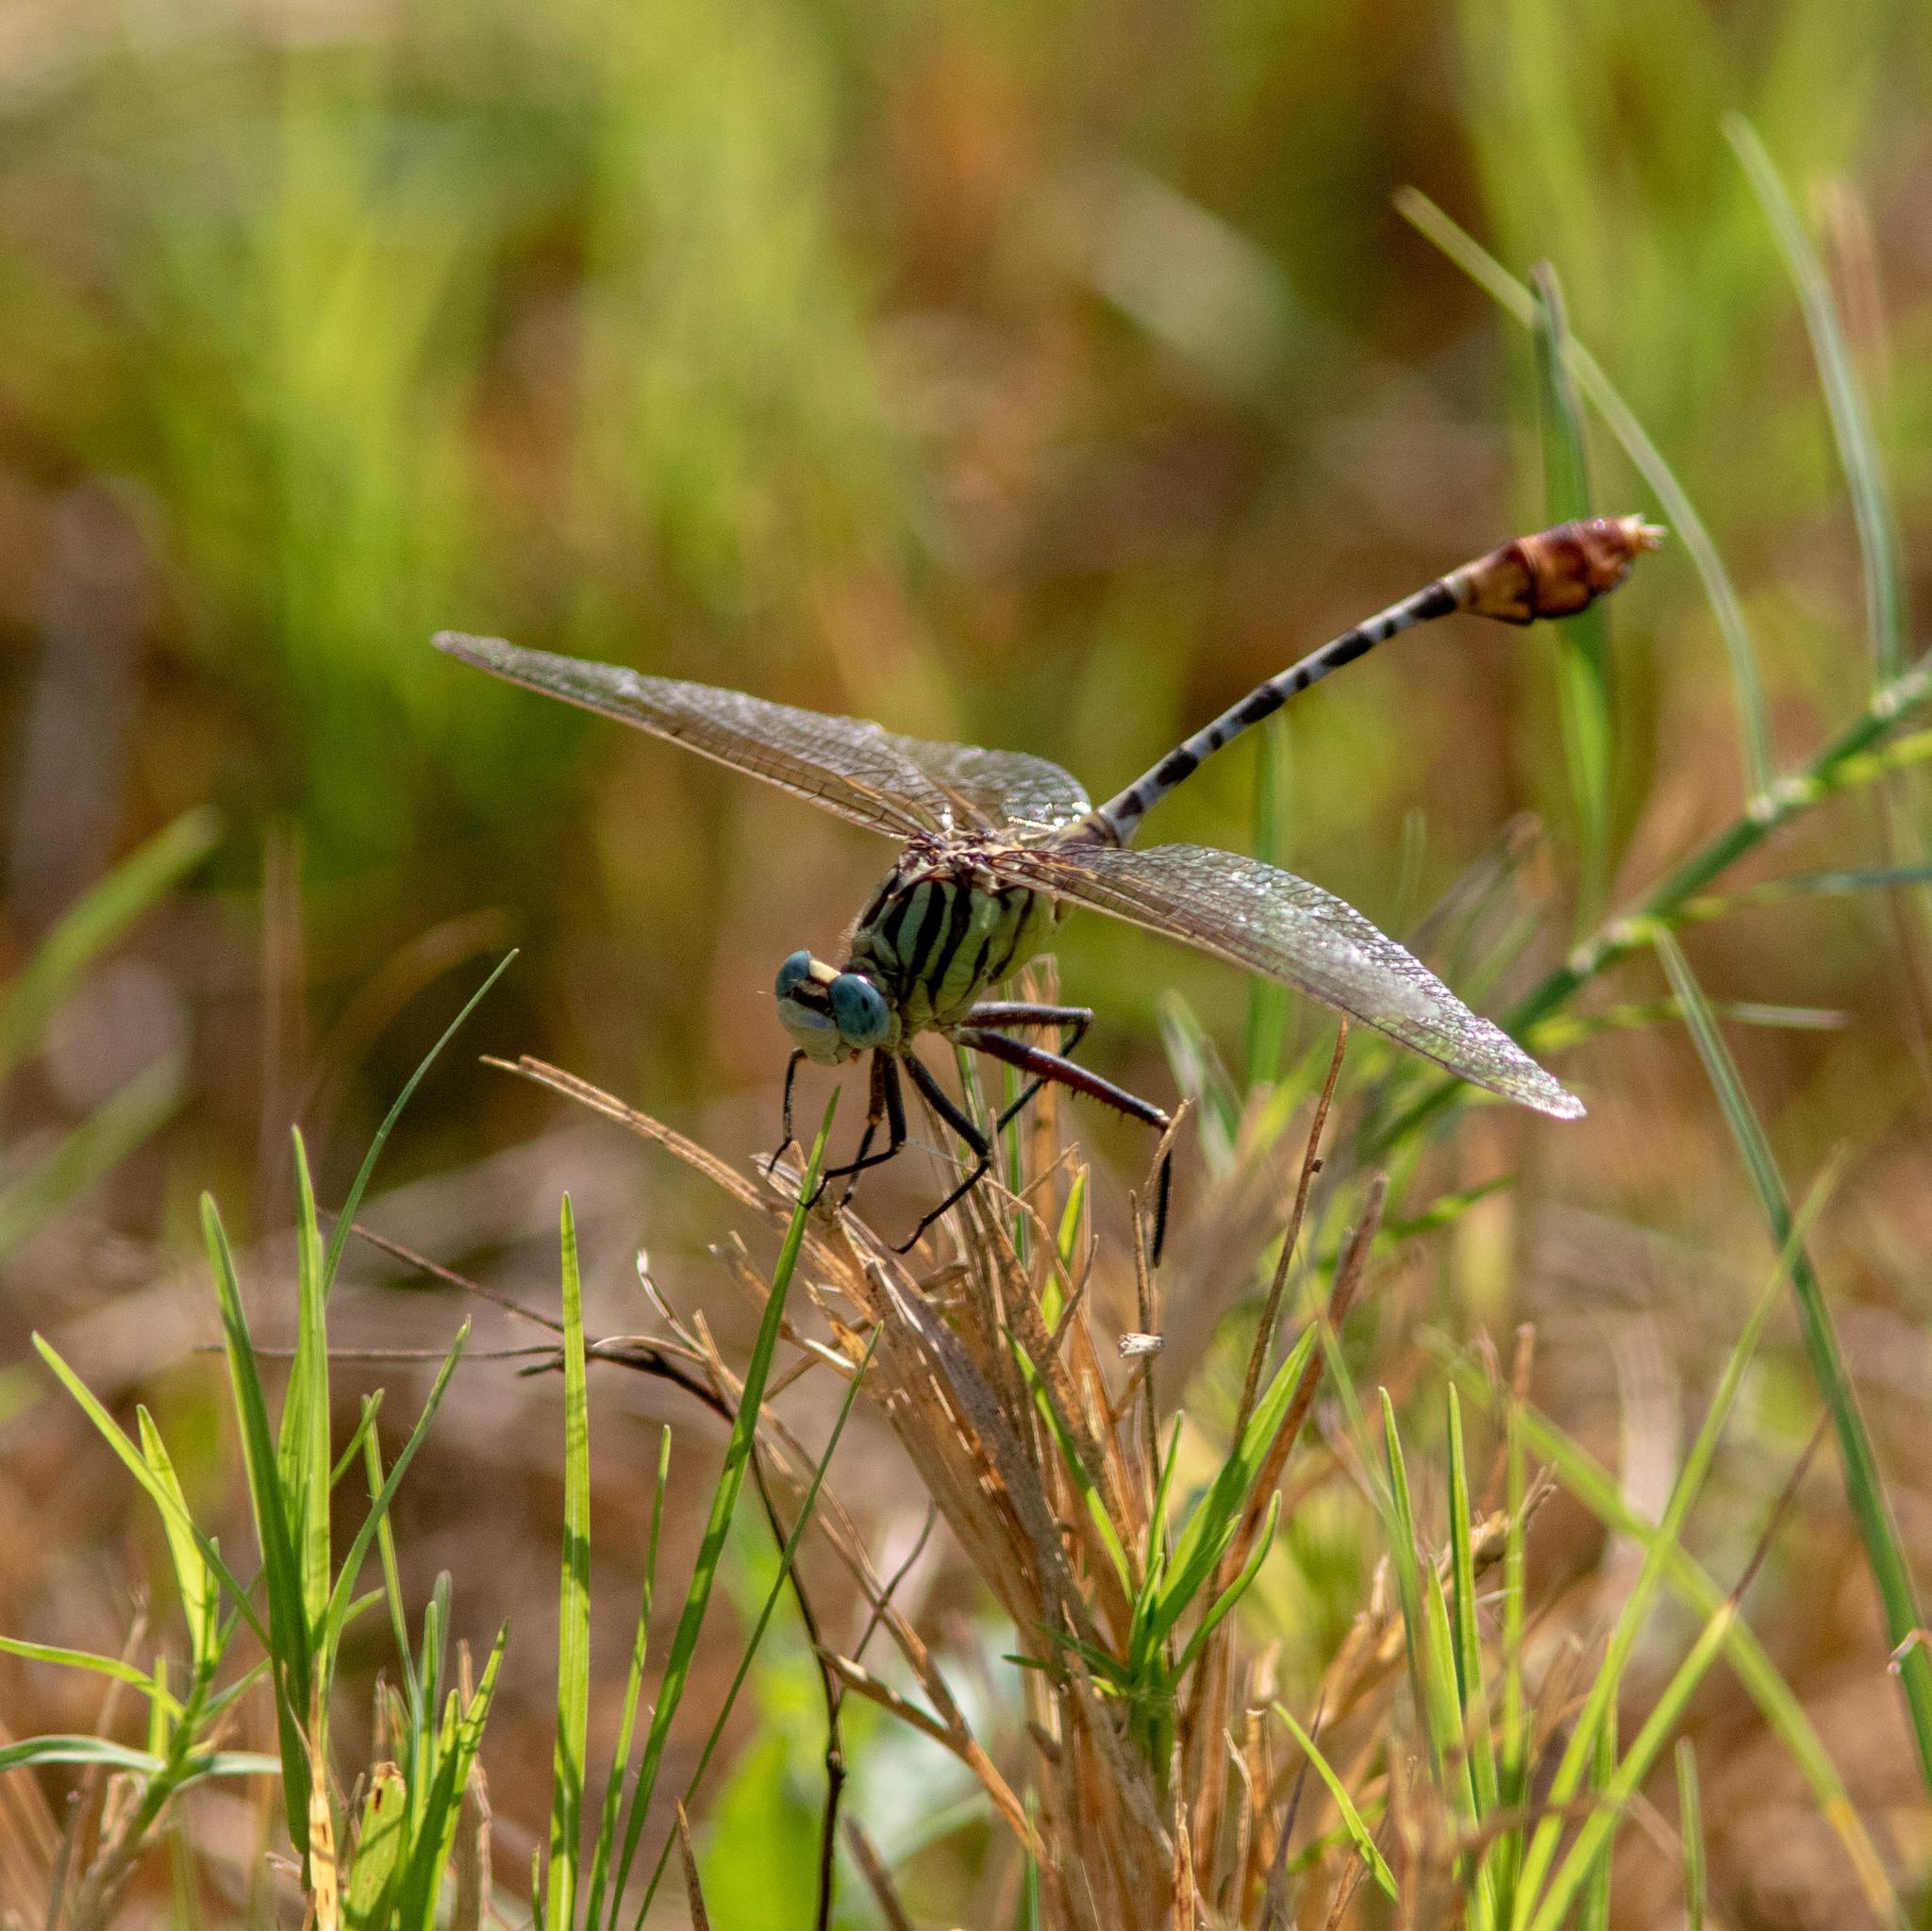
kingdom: Animalia
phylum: Arthropoda
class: Insecta
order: Odonata
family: Gomphidae
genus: Dromogomphus
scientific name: Dromogomphus spoliatus
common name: Flag-tailed spinyleg
